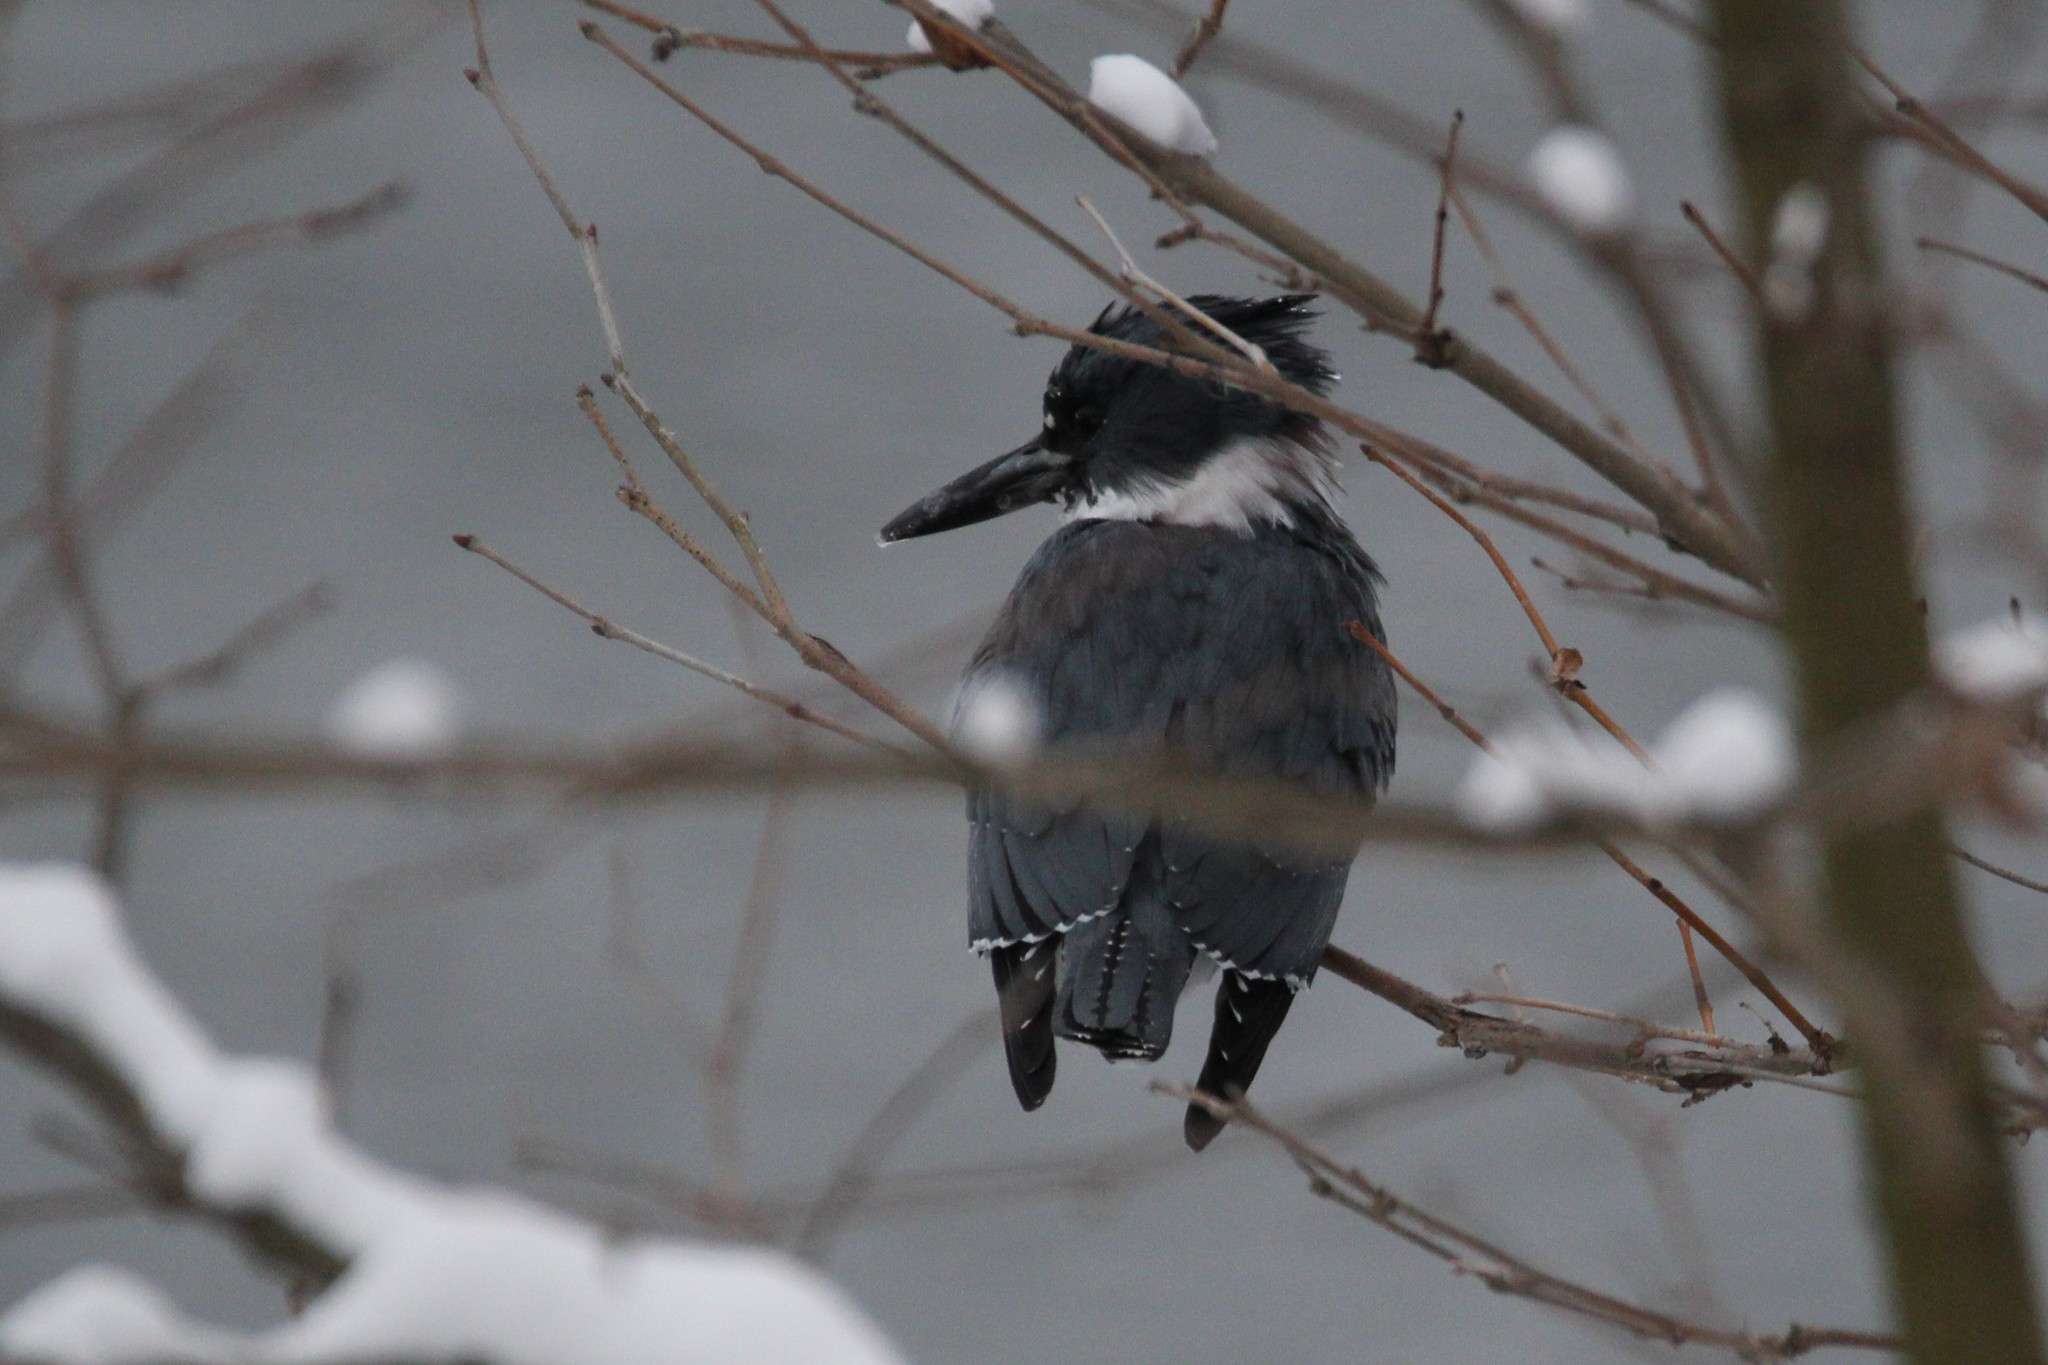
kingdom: Animalia
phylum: Chordata
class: Aves
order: Coraciiformes
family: Alcedinidae
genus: Megaceryle
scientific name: Megaceryle alcyon
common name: Belted kingfisher
